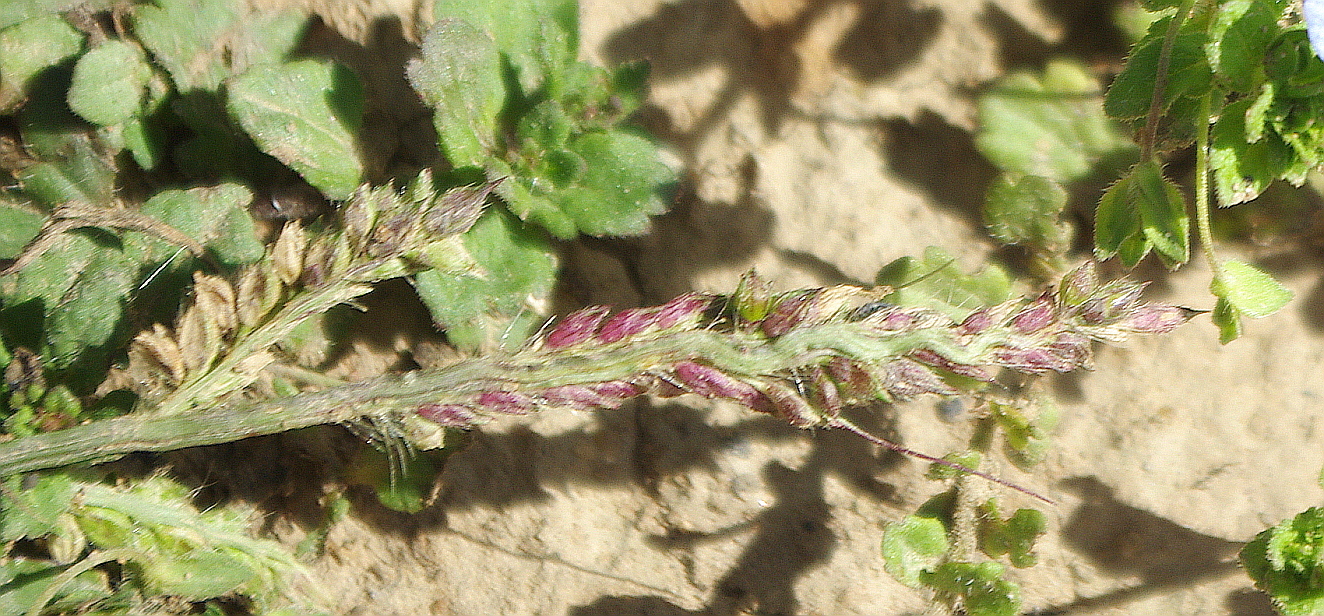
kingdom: Plantae
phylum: Tracheophyta
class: Liliopsida
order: Poales
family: Poaceae
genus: Echinochloa
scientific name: Echinochloa crus-galli
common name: Cockspur
